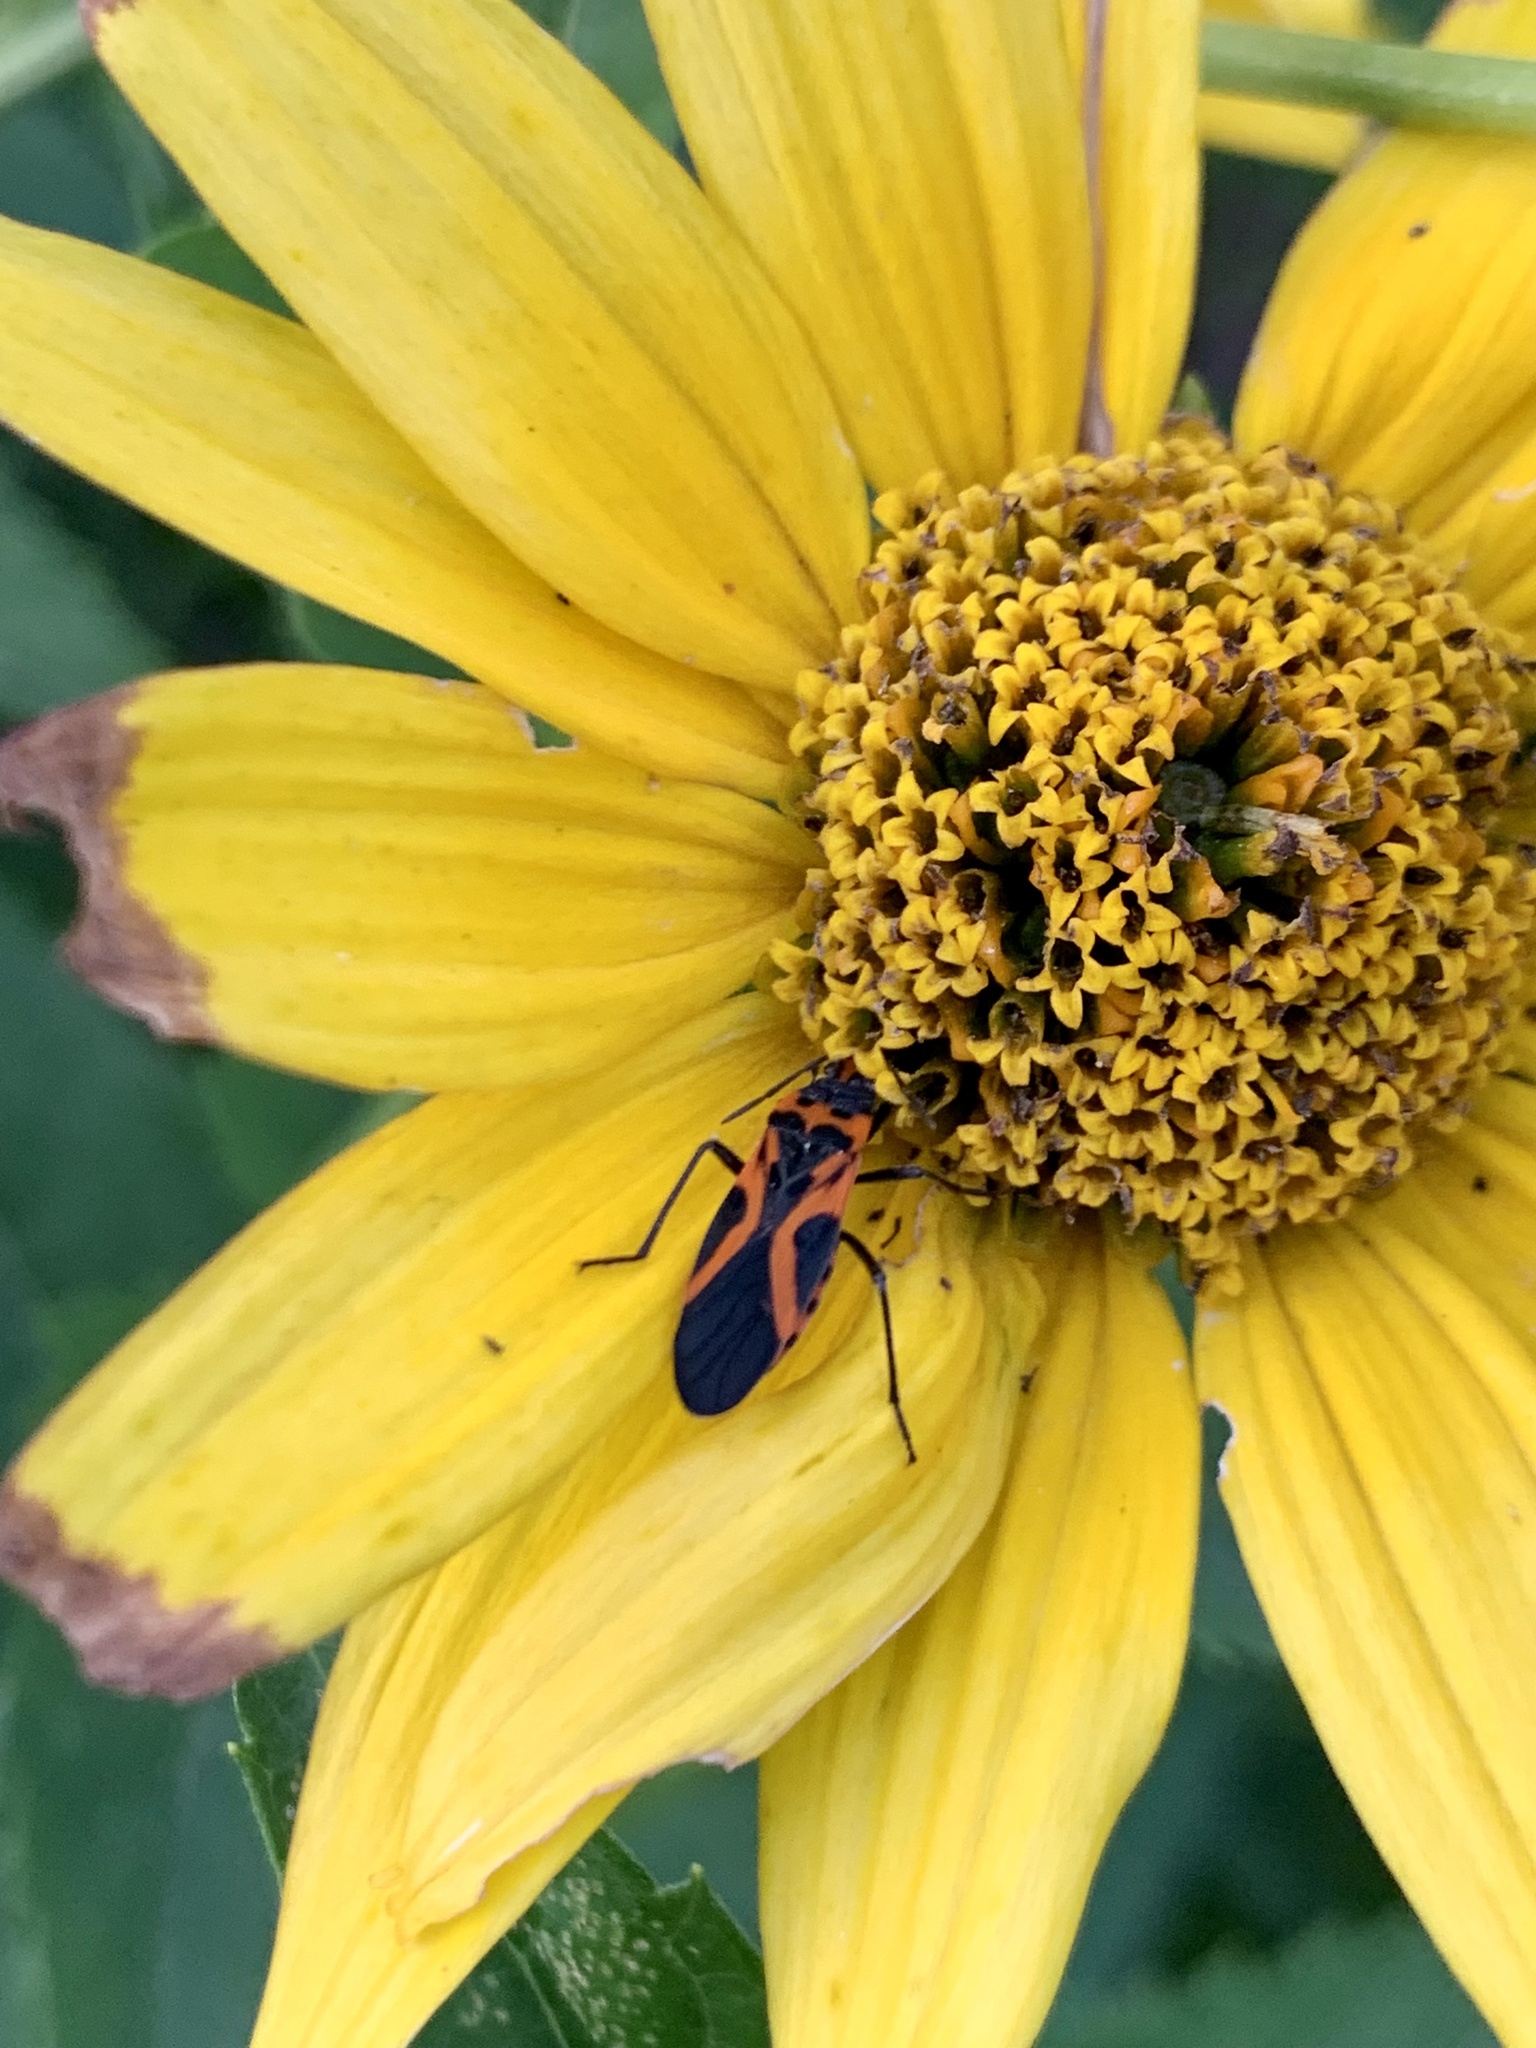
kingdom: Animalia
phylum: Arthropoda
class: Insecta
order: Hemiptera
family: Lygaeidae
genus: Lygaeus
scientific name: Lygaeus turcicus
